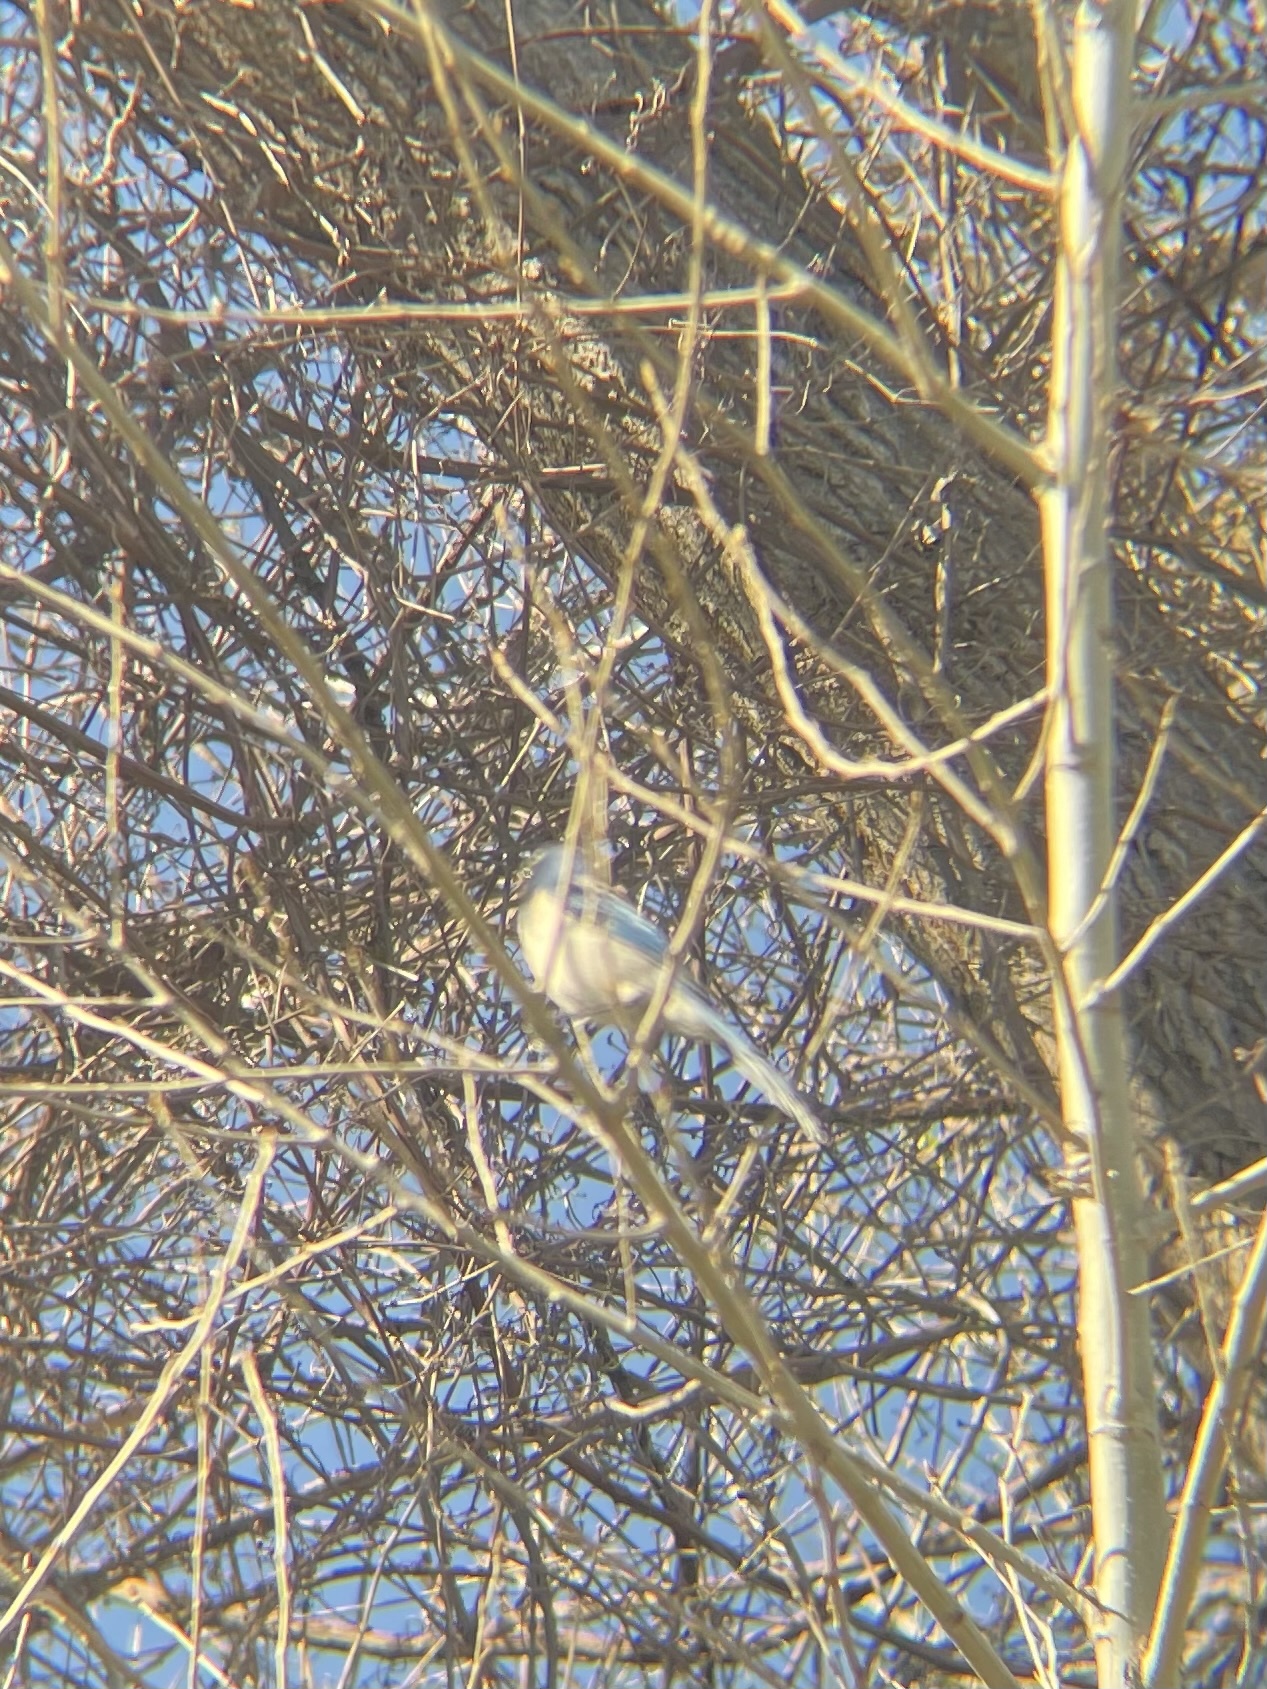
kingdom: Animalia
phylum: Chordata
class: Aves
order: Passeriformes
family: Corvidae
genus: Aphelocoma
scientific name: Aphelocoma californica
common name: California scrub-jay
